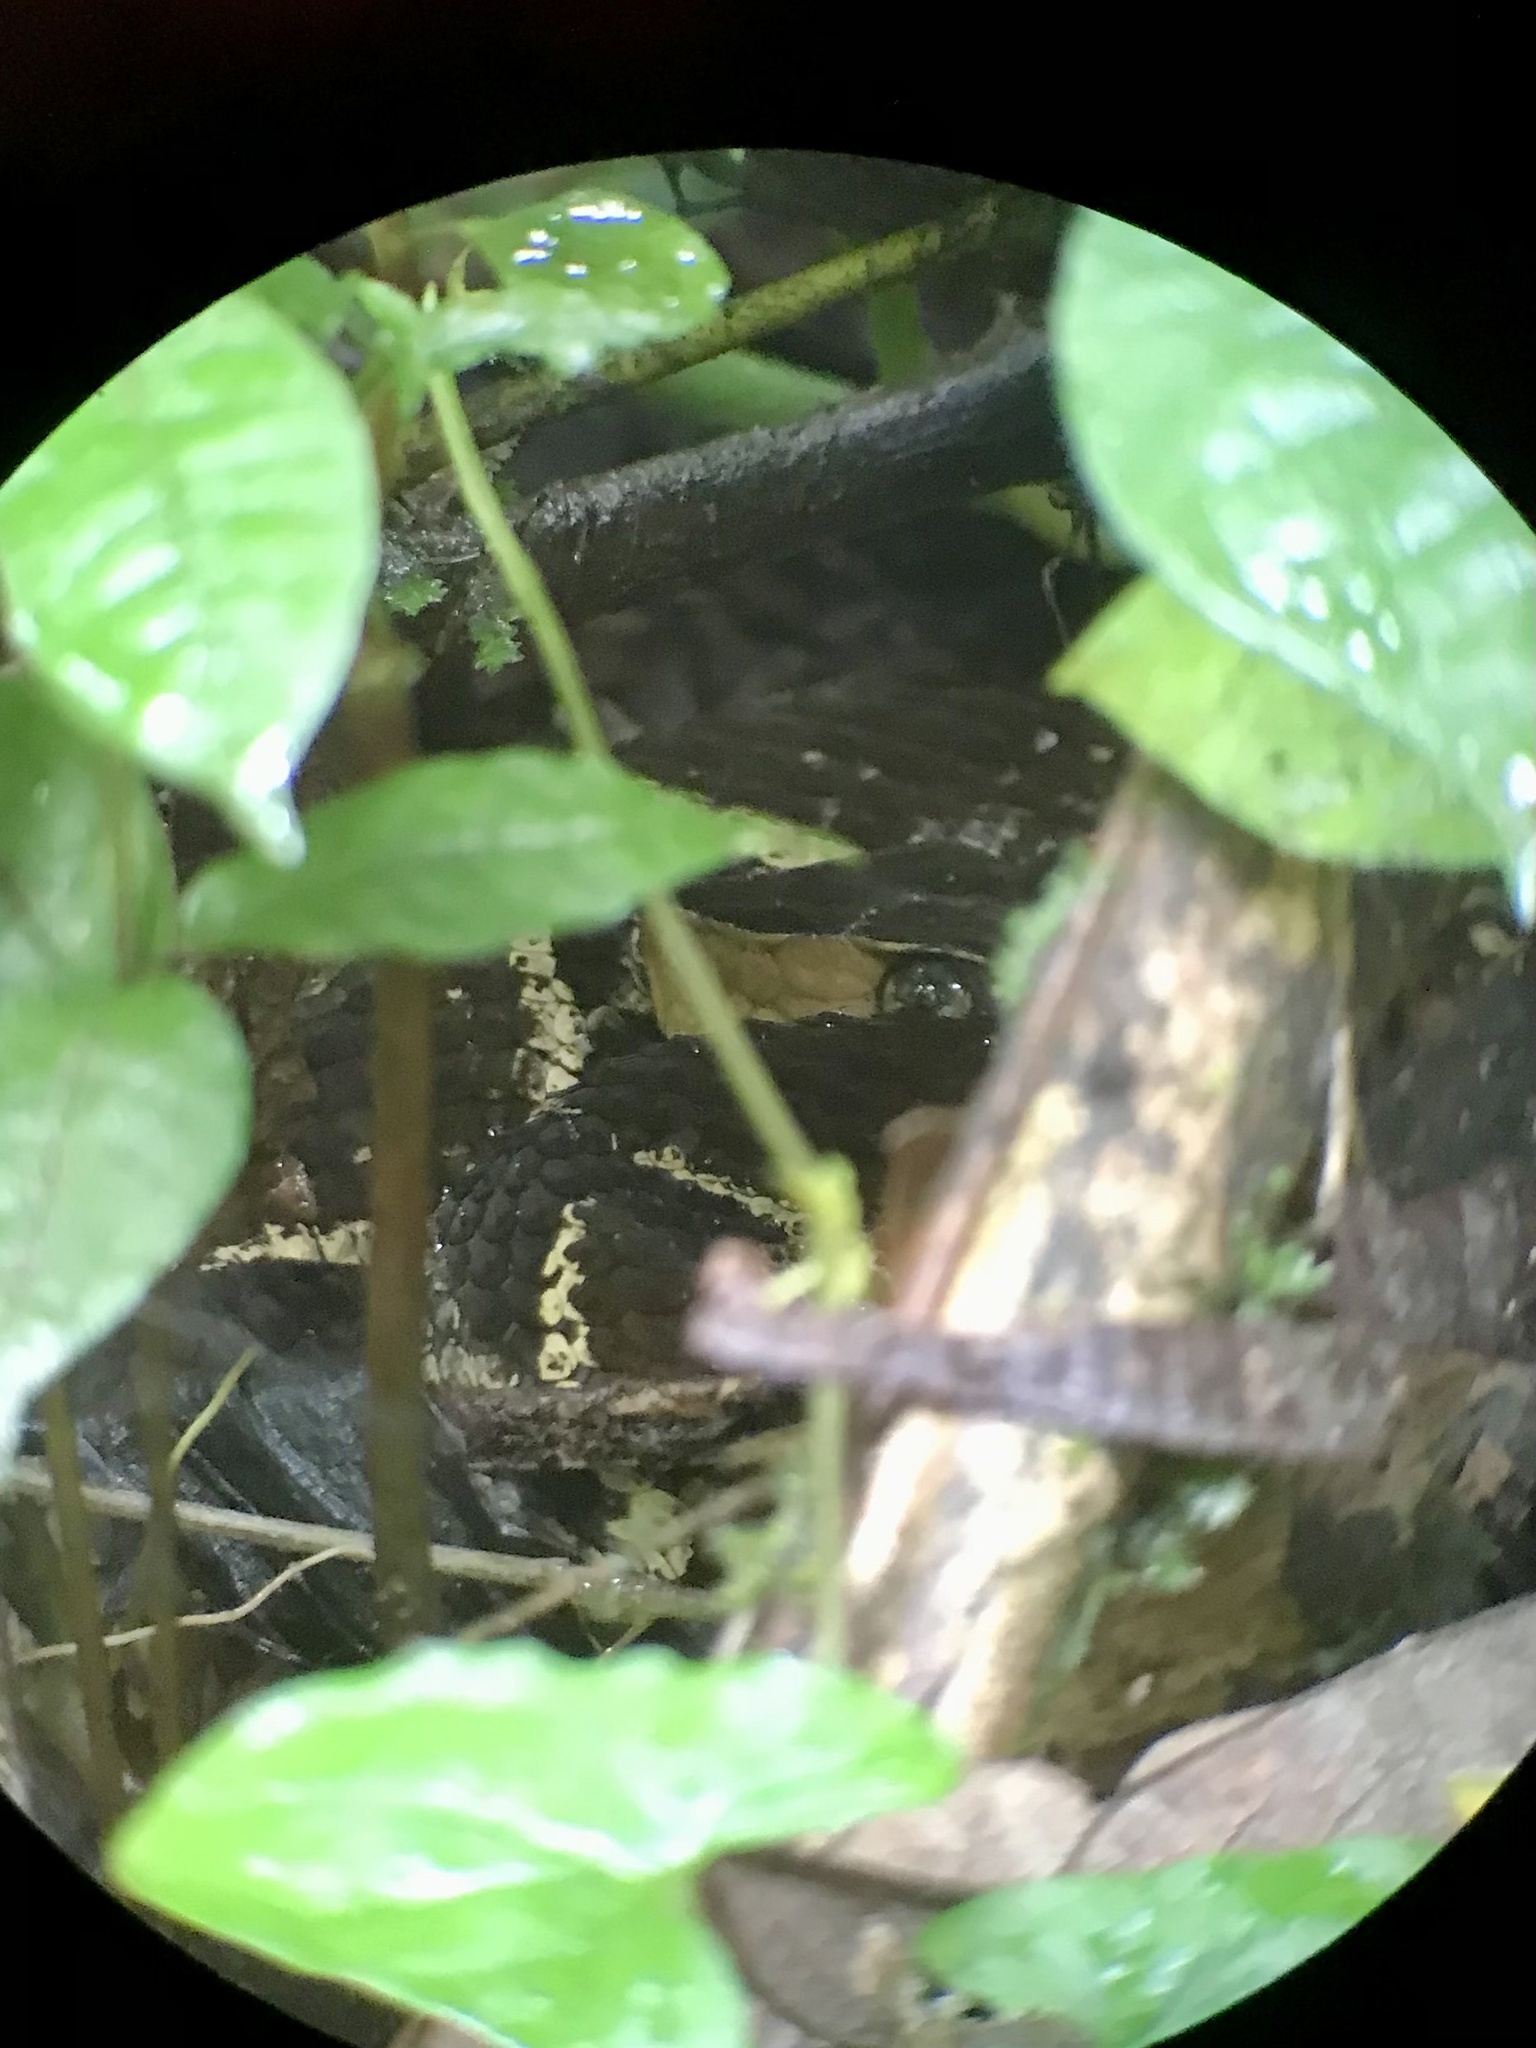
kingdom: Animalia
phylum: Chordata
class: Squamata
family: Viperidae
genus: Bothrops
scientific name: Bothrops asper
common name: Terciopelo
